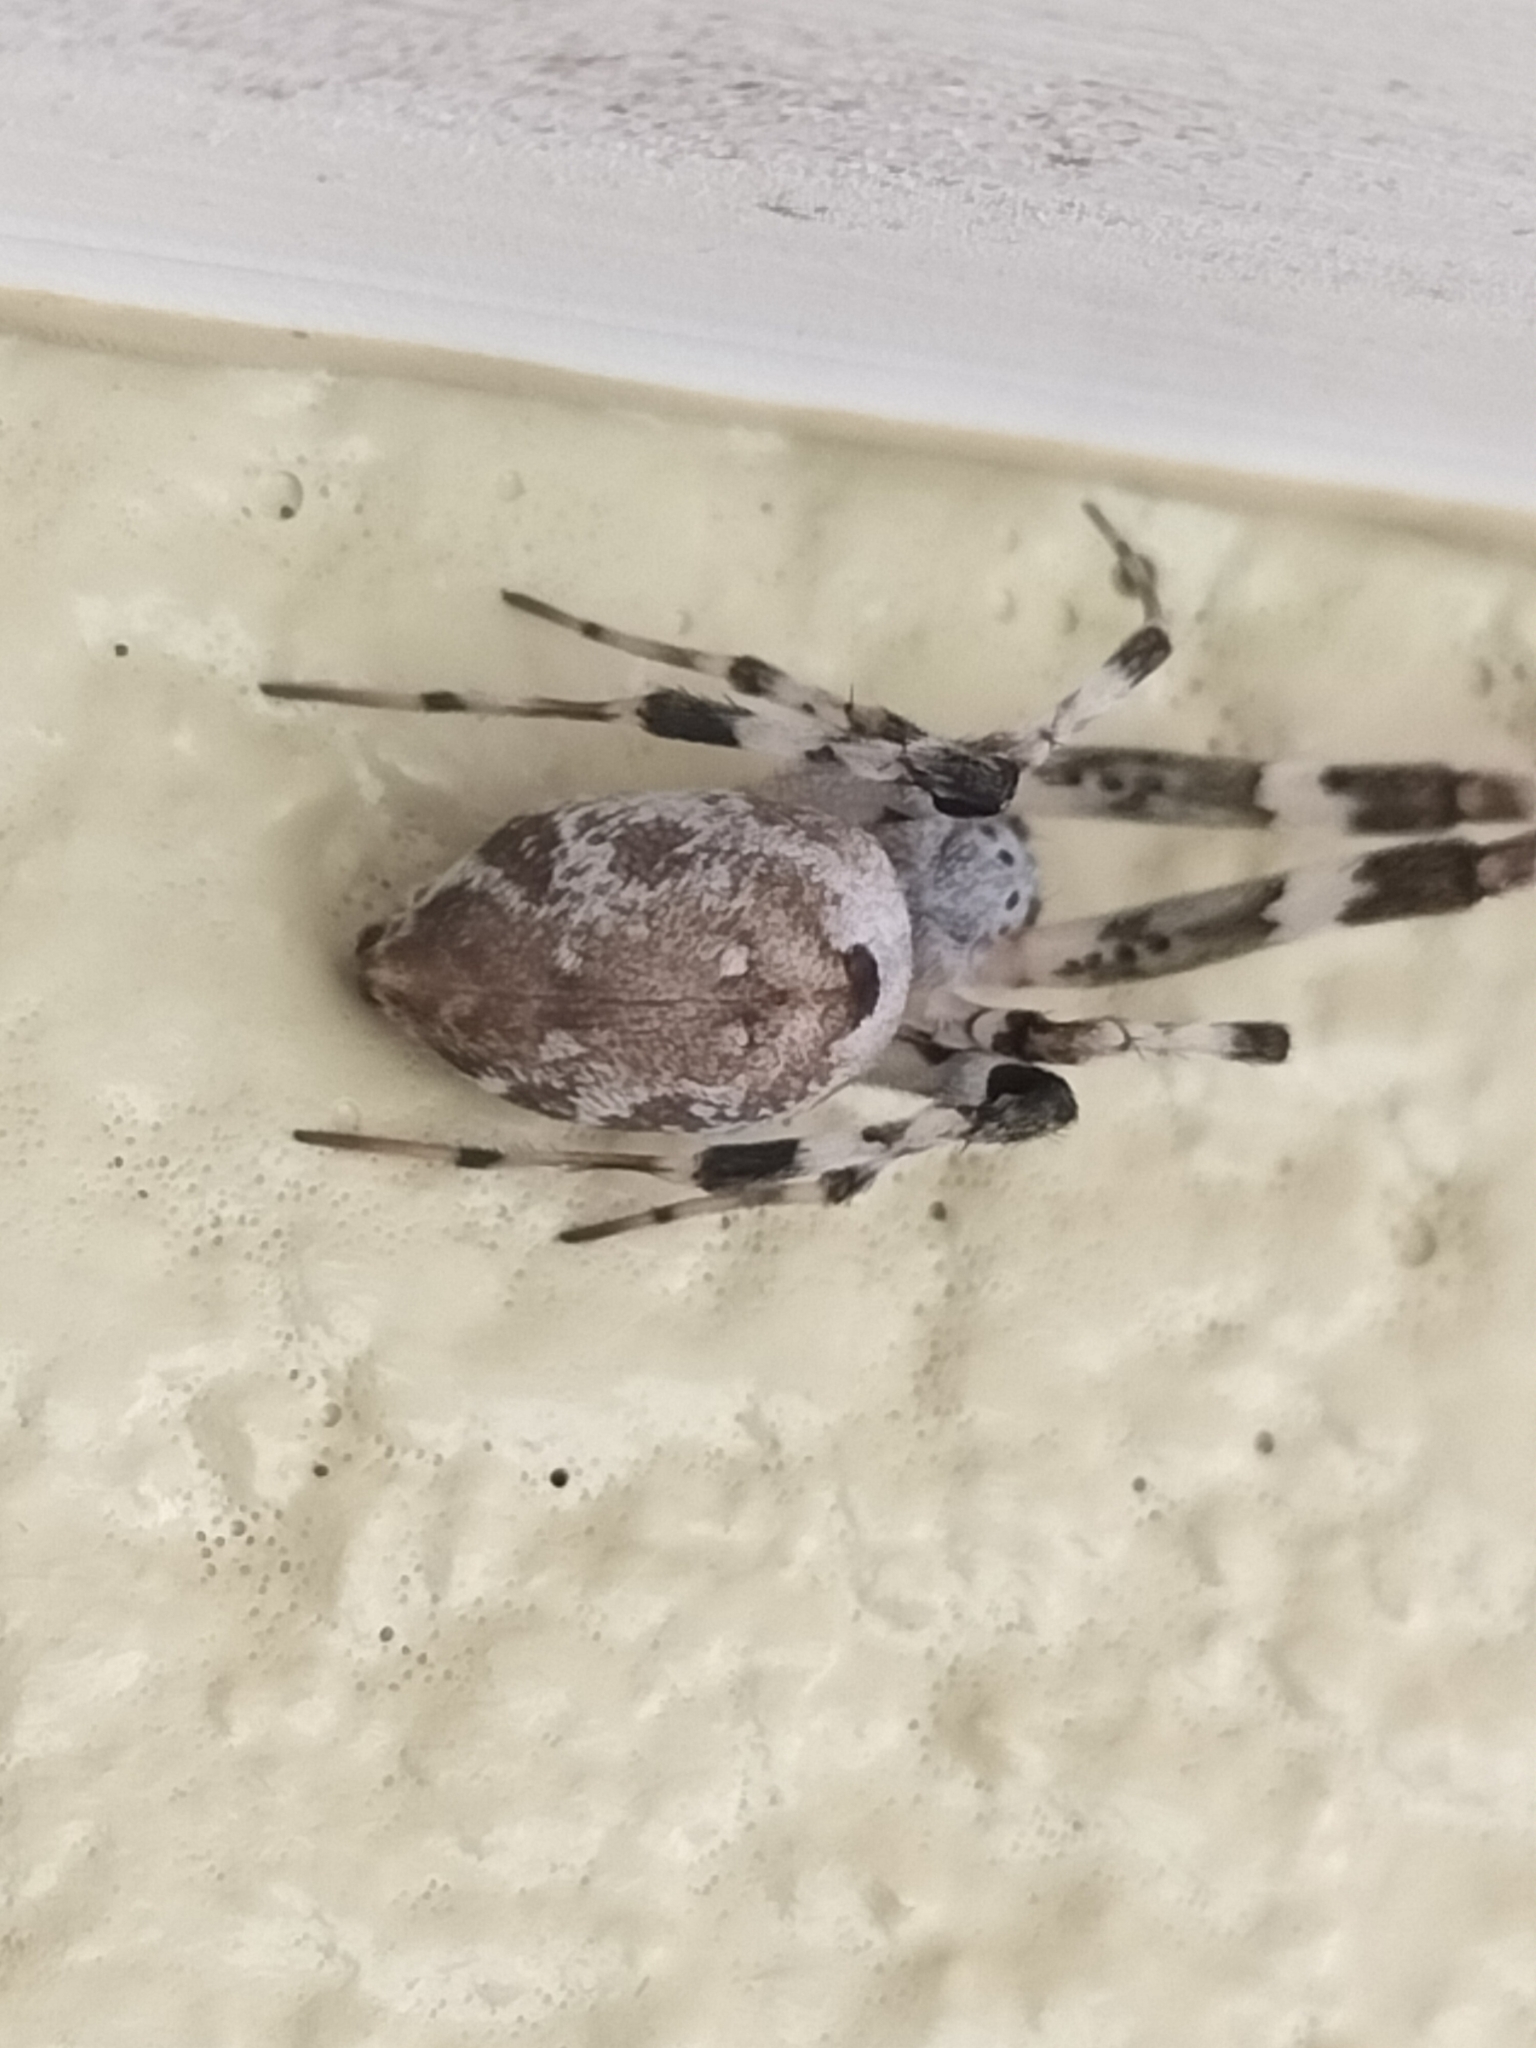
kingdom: Animalia
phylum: Arthropoda
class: Arachnida
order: Araneae
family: Uloboridae
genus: Zosis
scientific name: Zosis geniculata
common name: Hackled orb weavers
